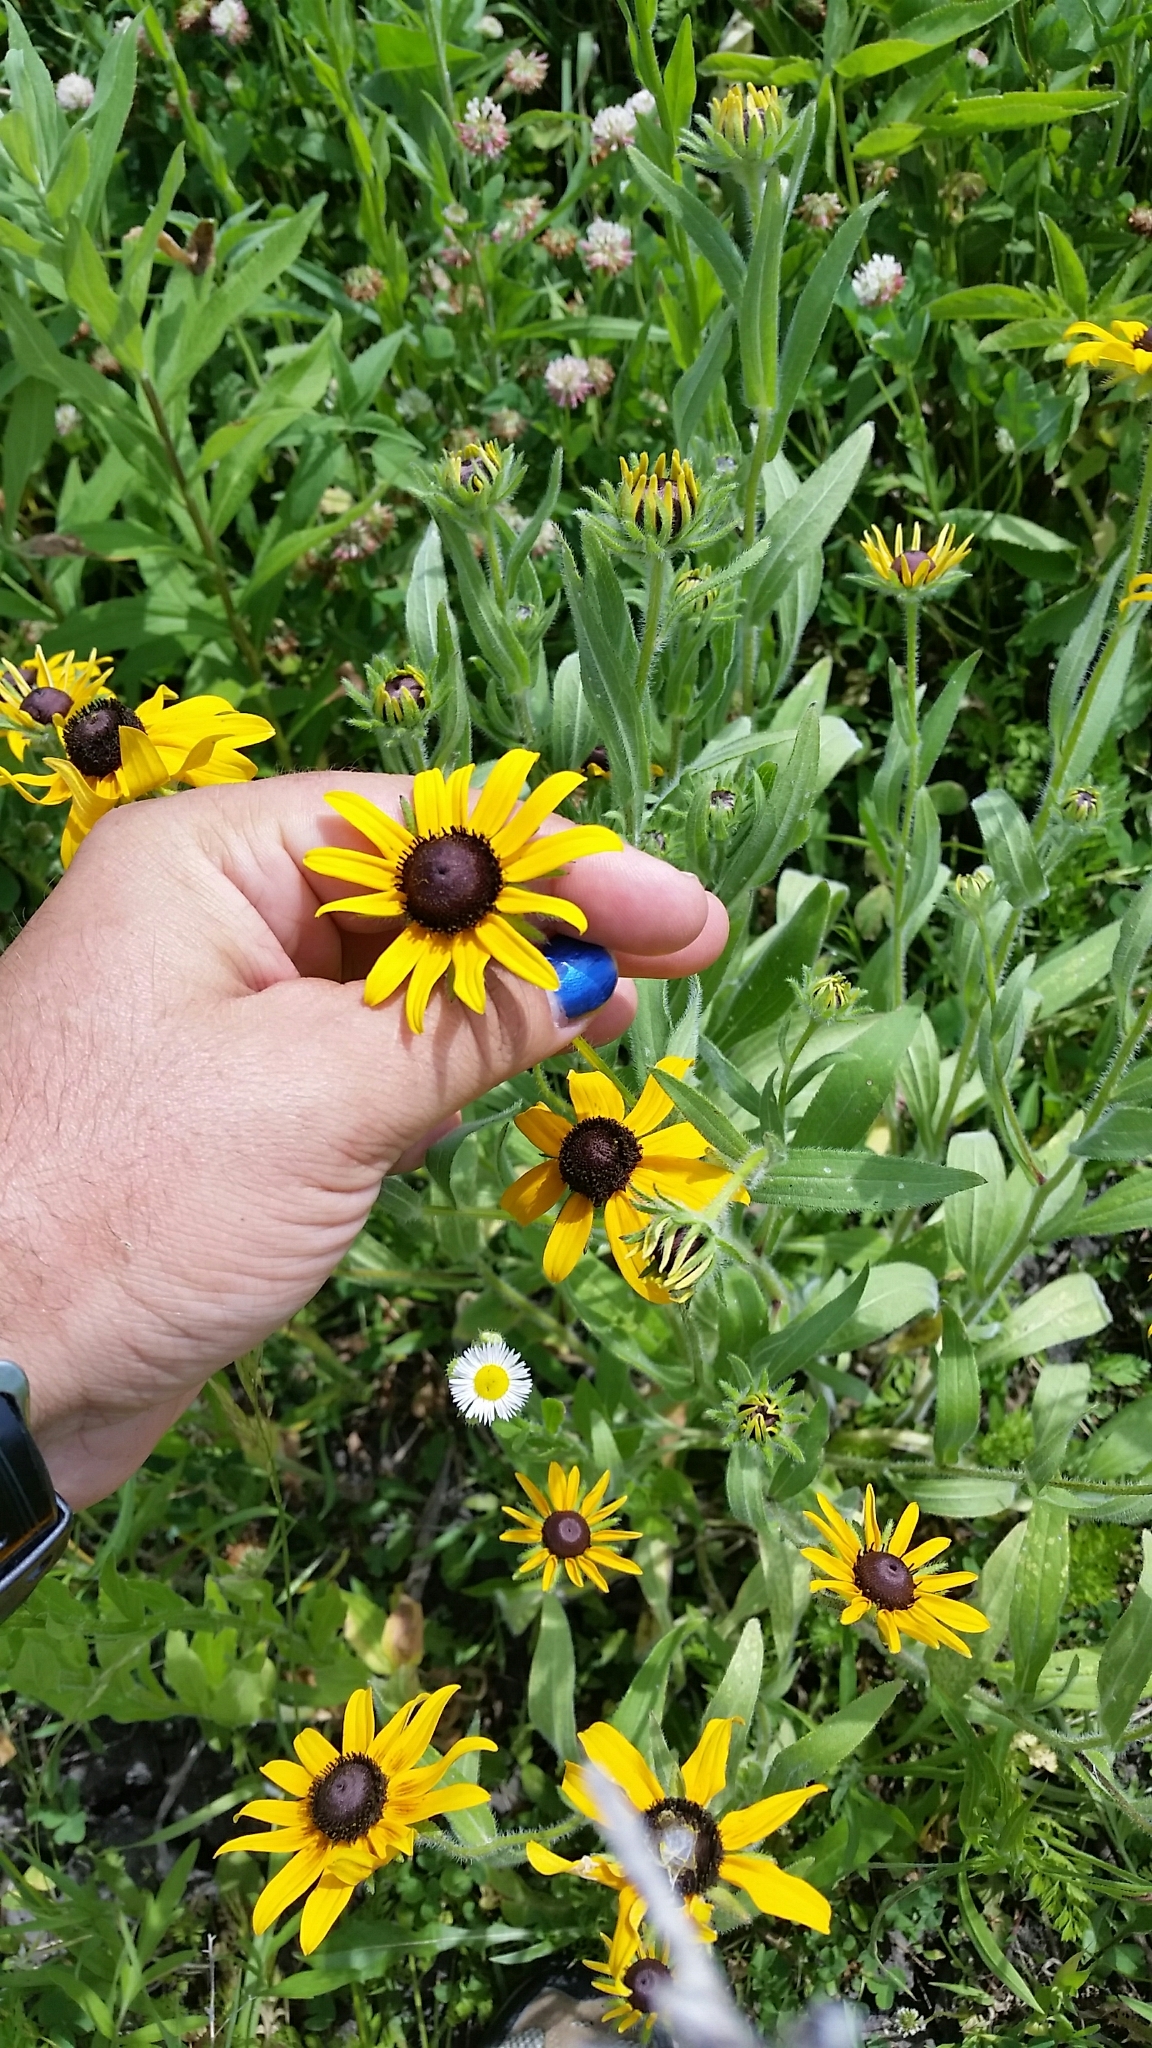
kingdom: Plantae
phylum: Tracheophyta
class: Magnoliopsida
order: Asterales
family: Asteraceae
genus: Rudbeckia
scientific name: Rudbeckia hirta
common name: Black-eyed-susan
